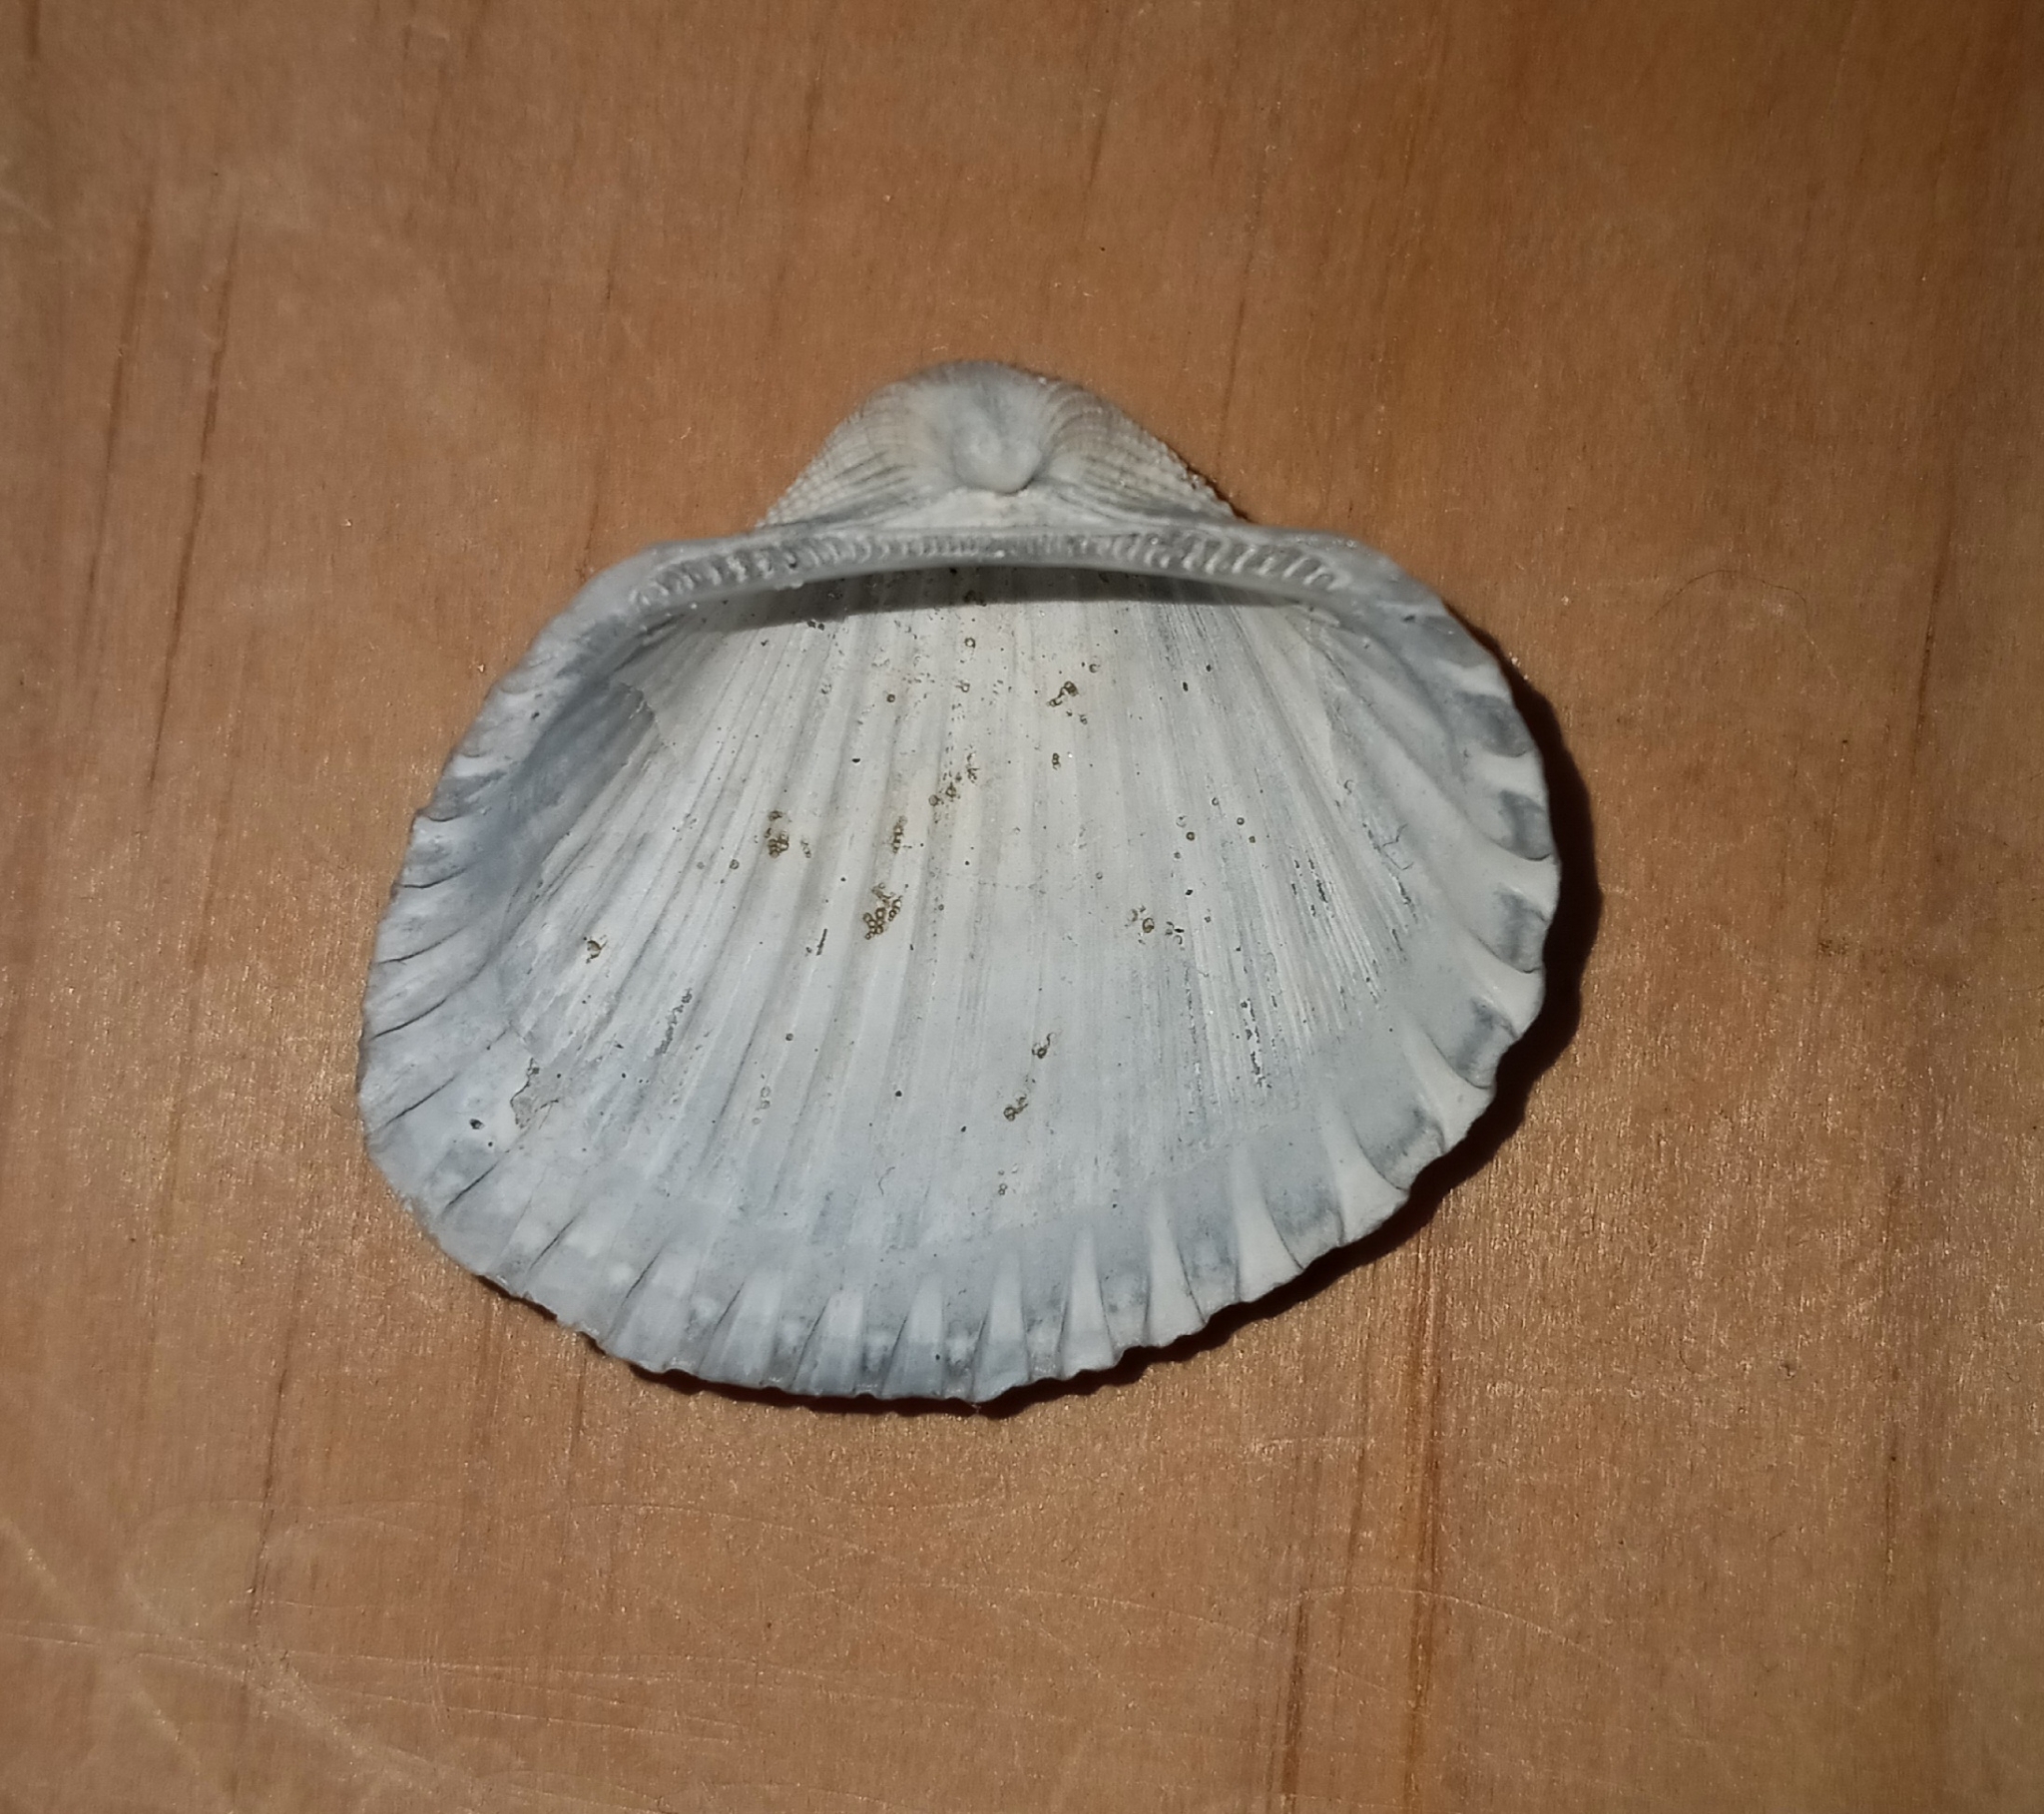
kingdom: Animalia
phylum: Mollusca
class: Bivalvia
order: Arcida
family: Arcidae
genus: Anadara
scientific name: Anadara brasiliana
